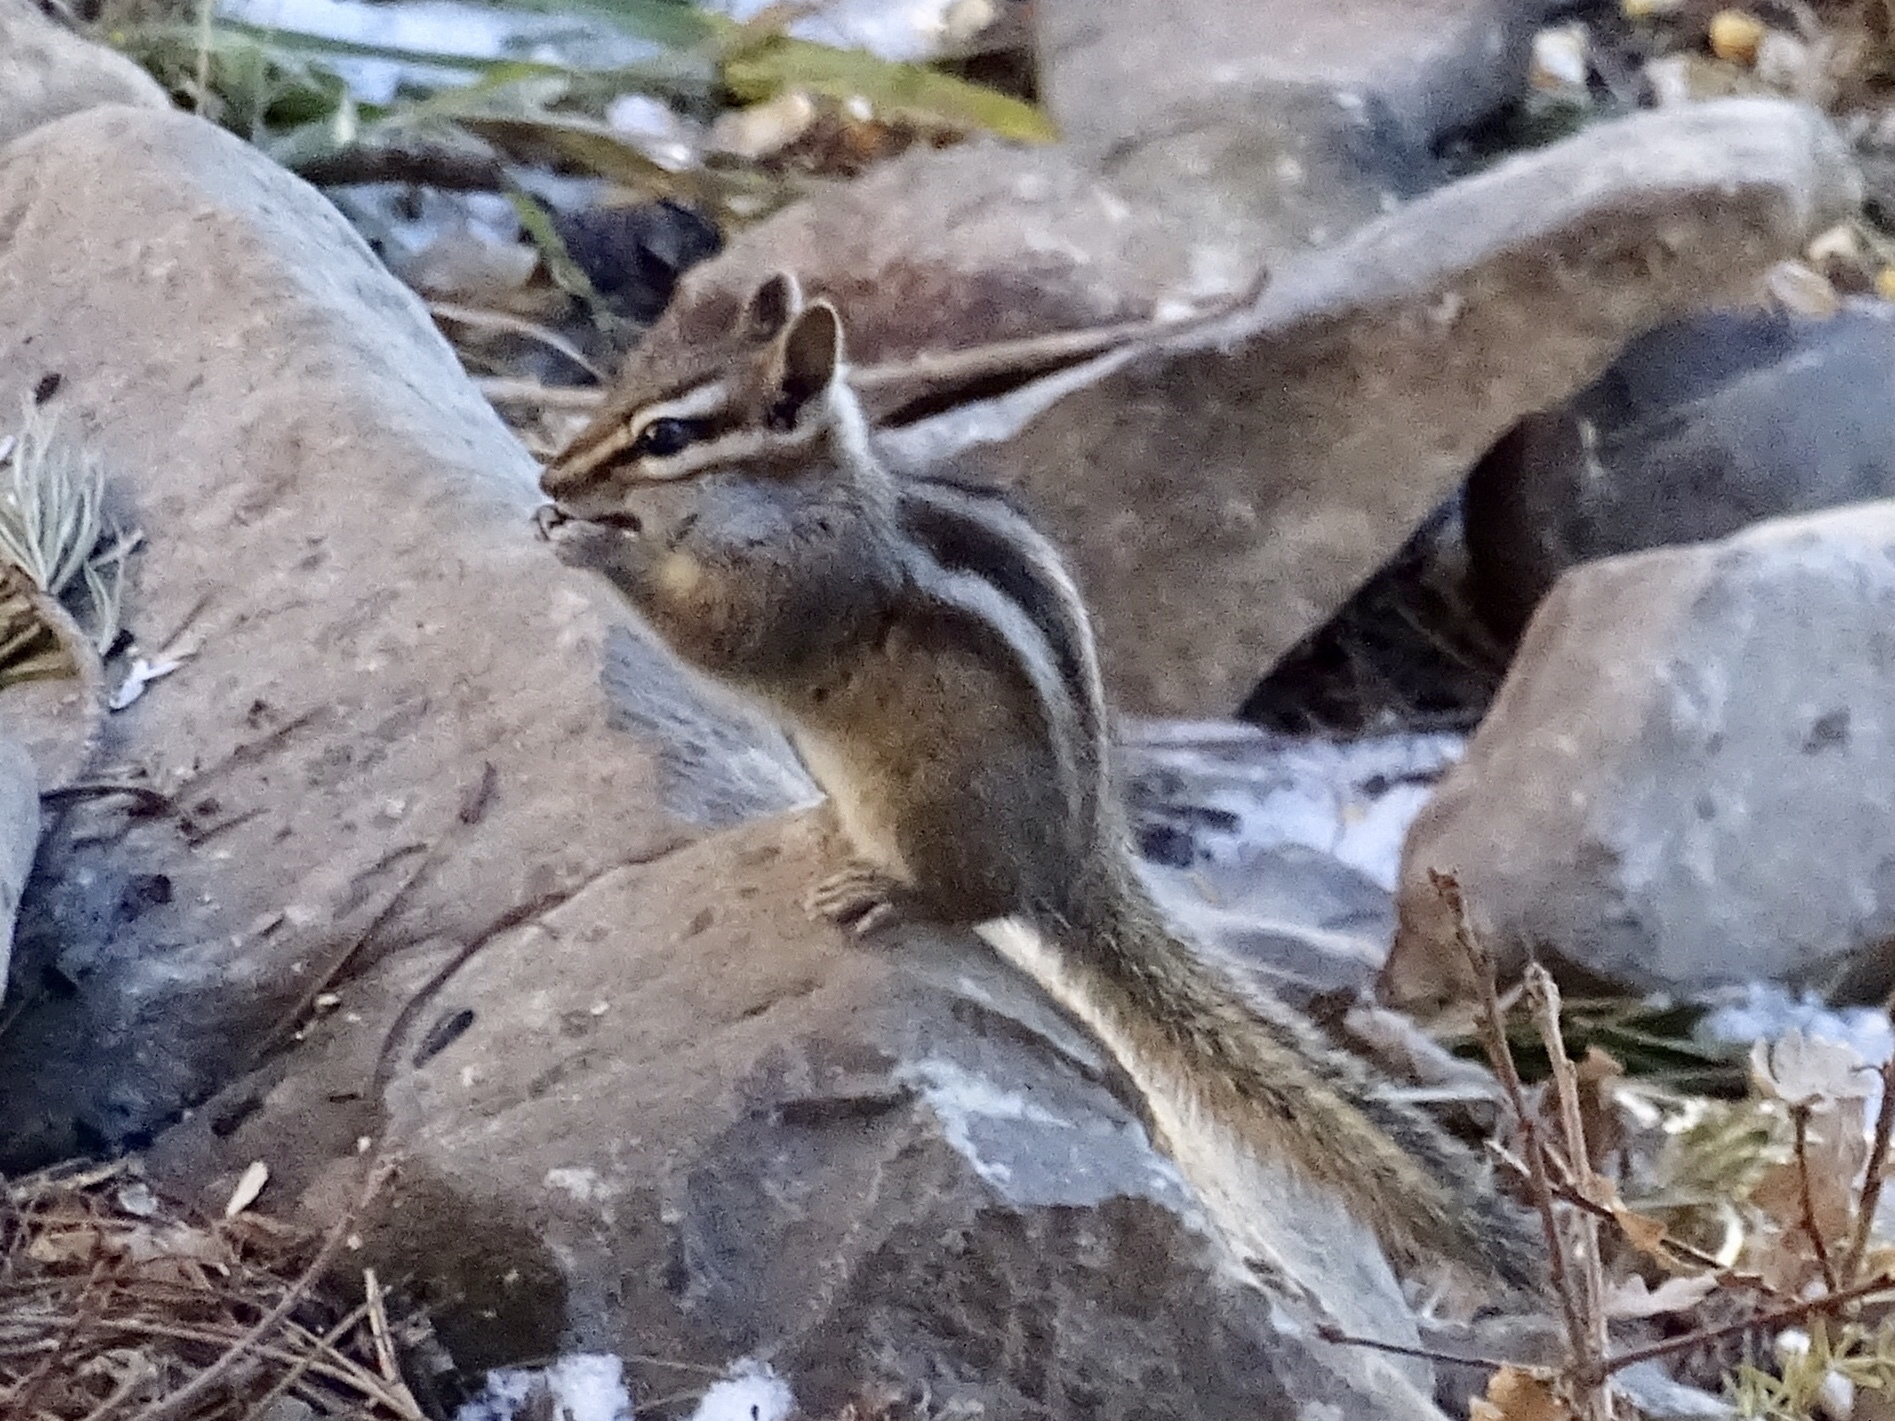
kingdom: Animalia
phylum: Chordata
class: Mammalia
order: Rodentia
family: Sciuridae
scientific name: Sciuridae
